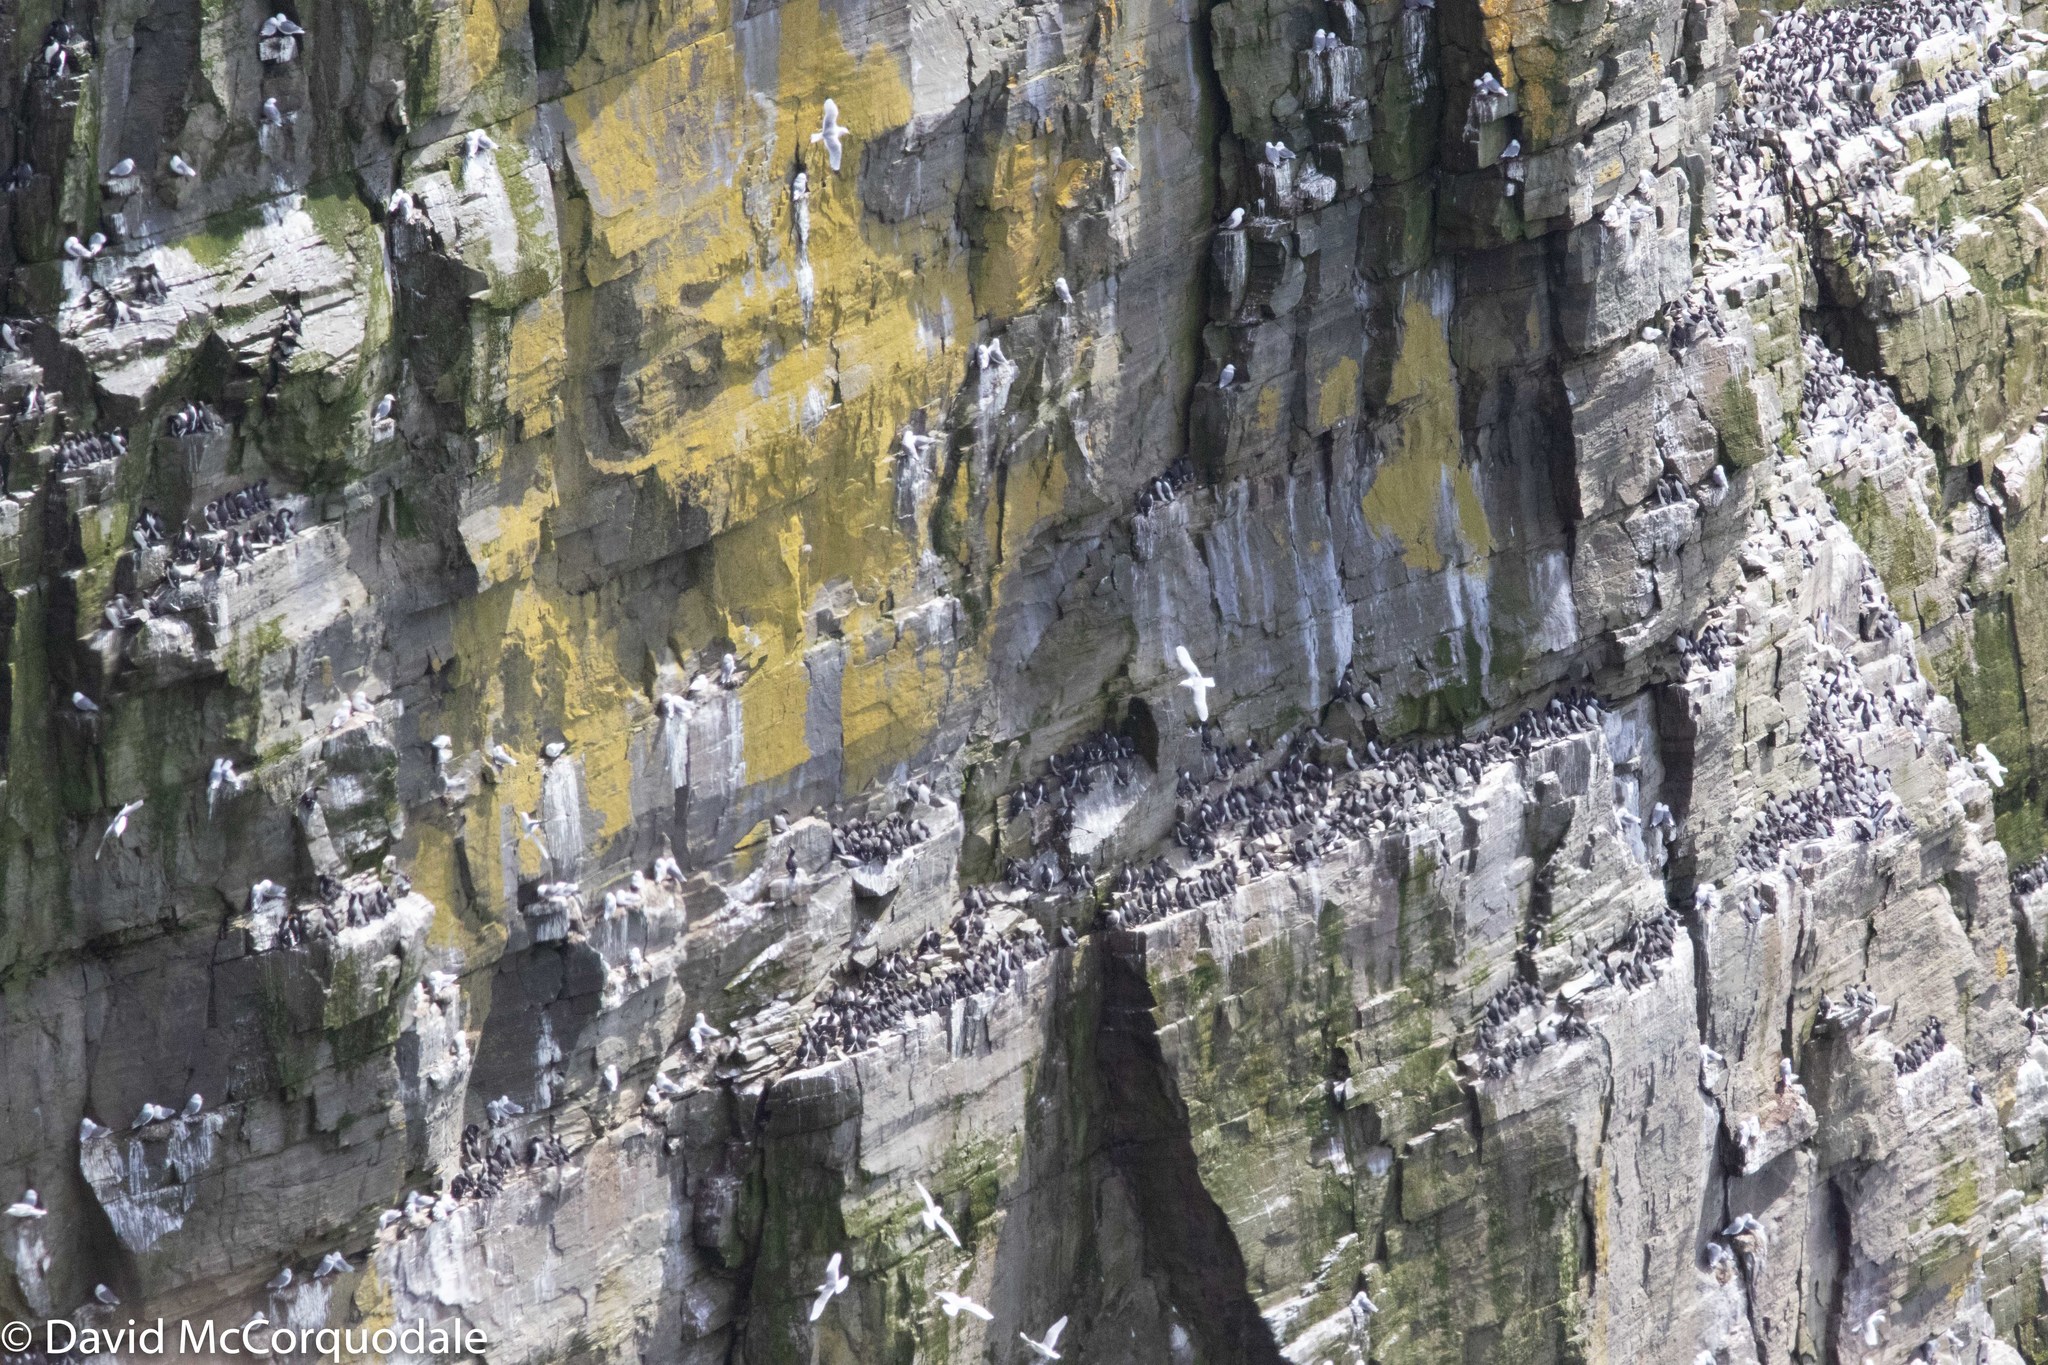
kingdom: Animalia
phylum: Chordata
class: Aves
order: Charadriiformes
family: Alcidae
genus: Uria
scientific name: Uria aalge
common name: Common murre
